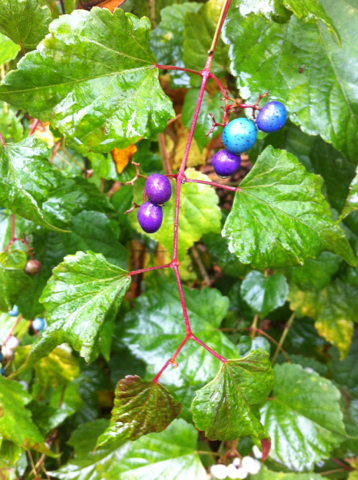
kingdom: Plantae
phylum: Tracheophyta
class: Magnoliopsida
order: Vitales
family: Vitaceae
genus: Ampelopsis
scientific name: Ampelopsis glandulosa
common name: Amur peppervine
